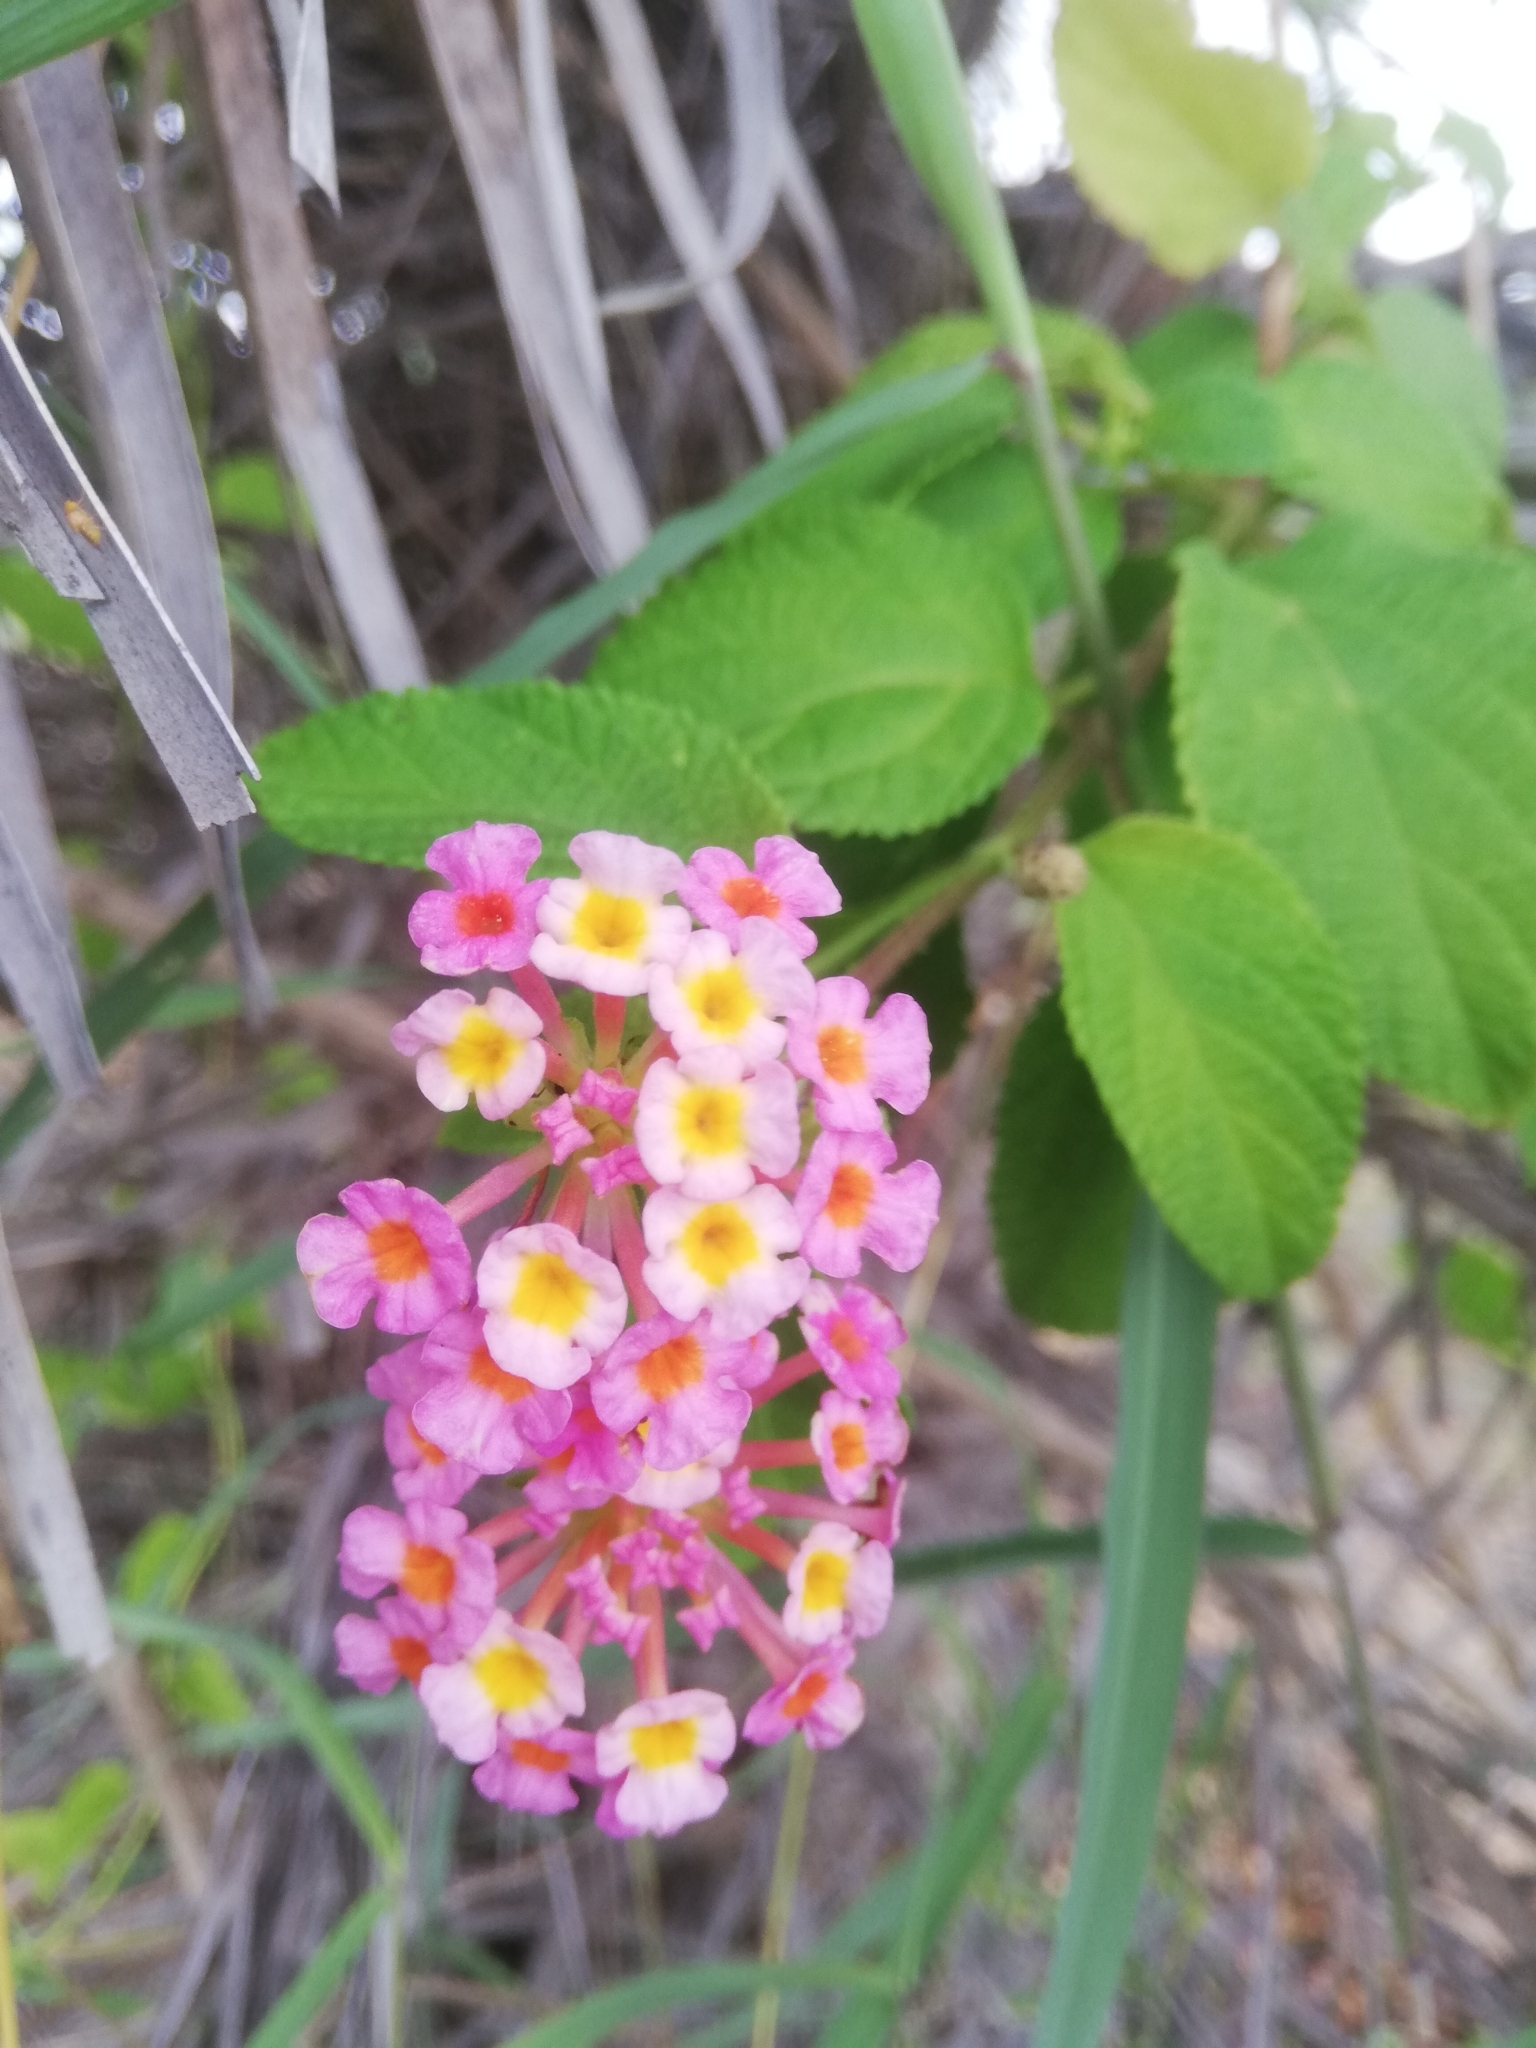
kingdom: Plantae
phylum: Tracheophyta
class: Magnoliopsida
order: Lamiales
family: Verbenaceae
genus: Lantana
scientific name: Lantana camara
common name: Lantana
